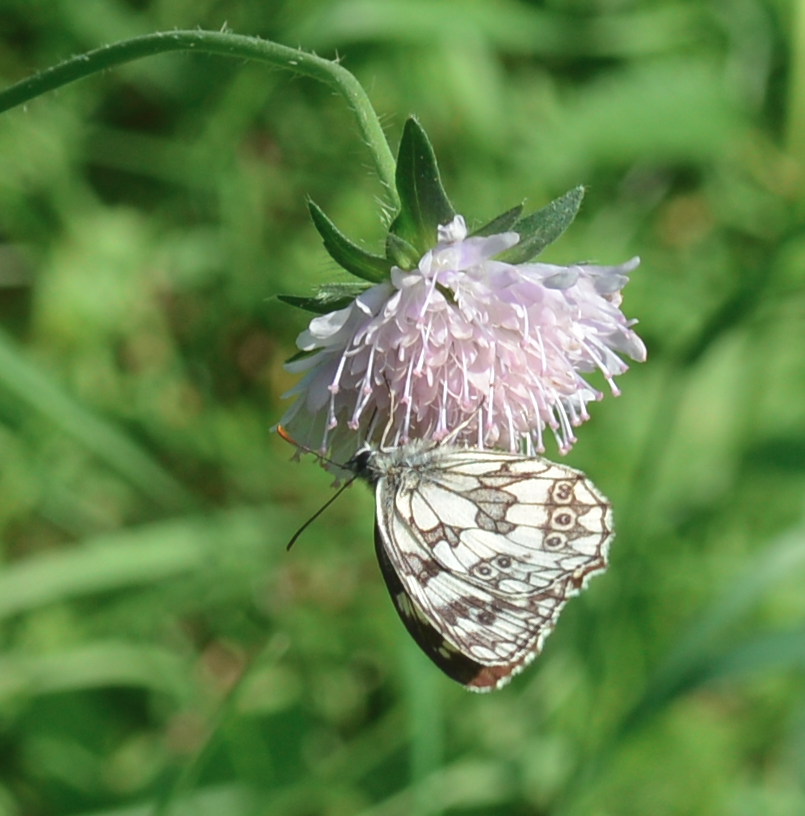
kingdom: Animalia
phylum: Arthropoda
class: Insecta
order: Lepidoptera
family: Nymphalidae
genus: Melanargia
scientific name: Melanargia galathea
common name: Marbled white
